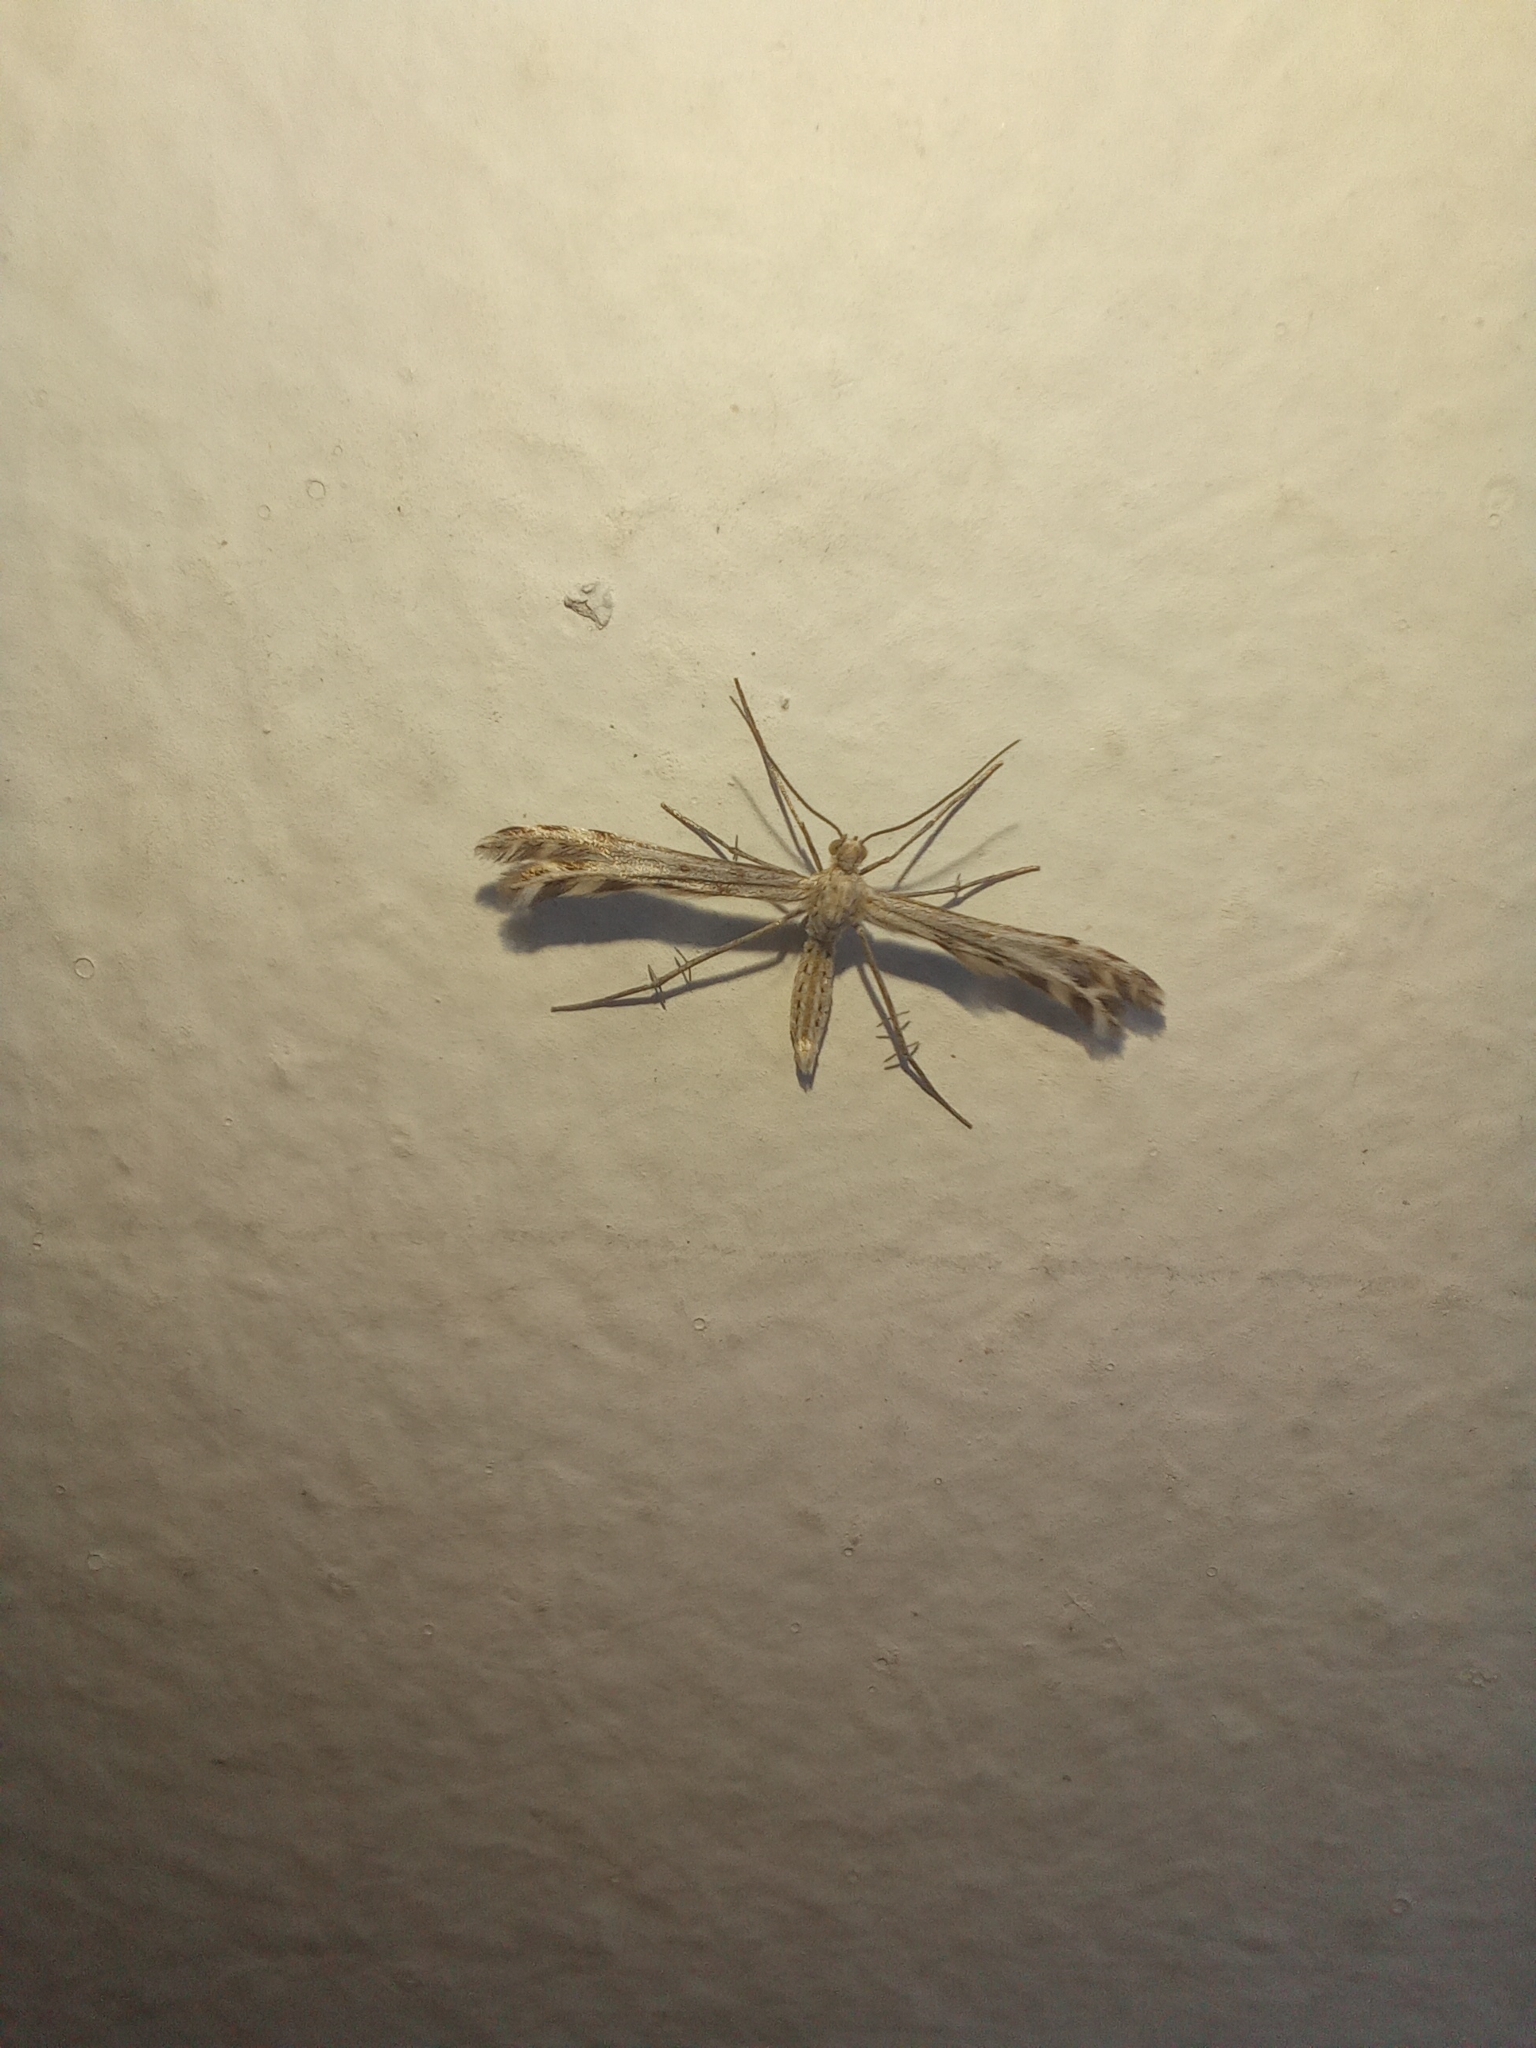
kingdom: Animalia
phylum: Arthropoda
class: Insecta
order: Lepidoptera
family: Pterophoridae
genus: Singularia
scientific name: Singularia alternaria
